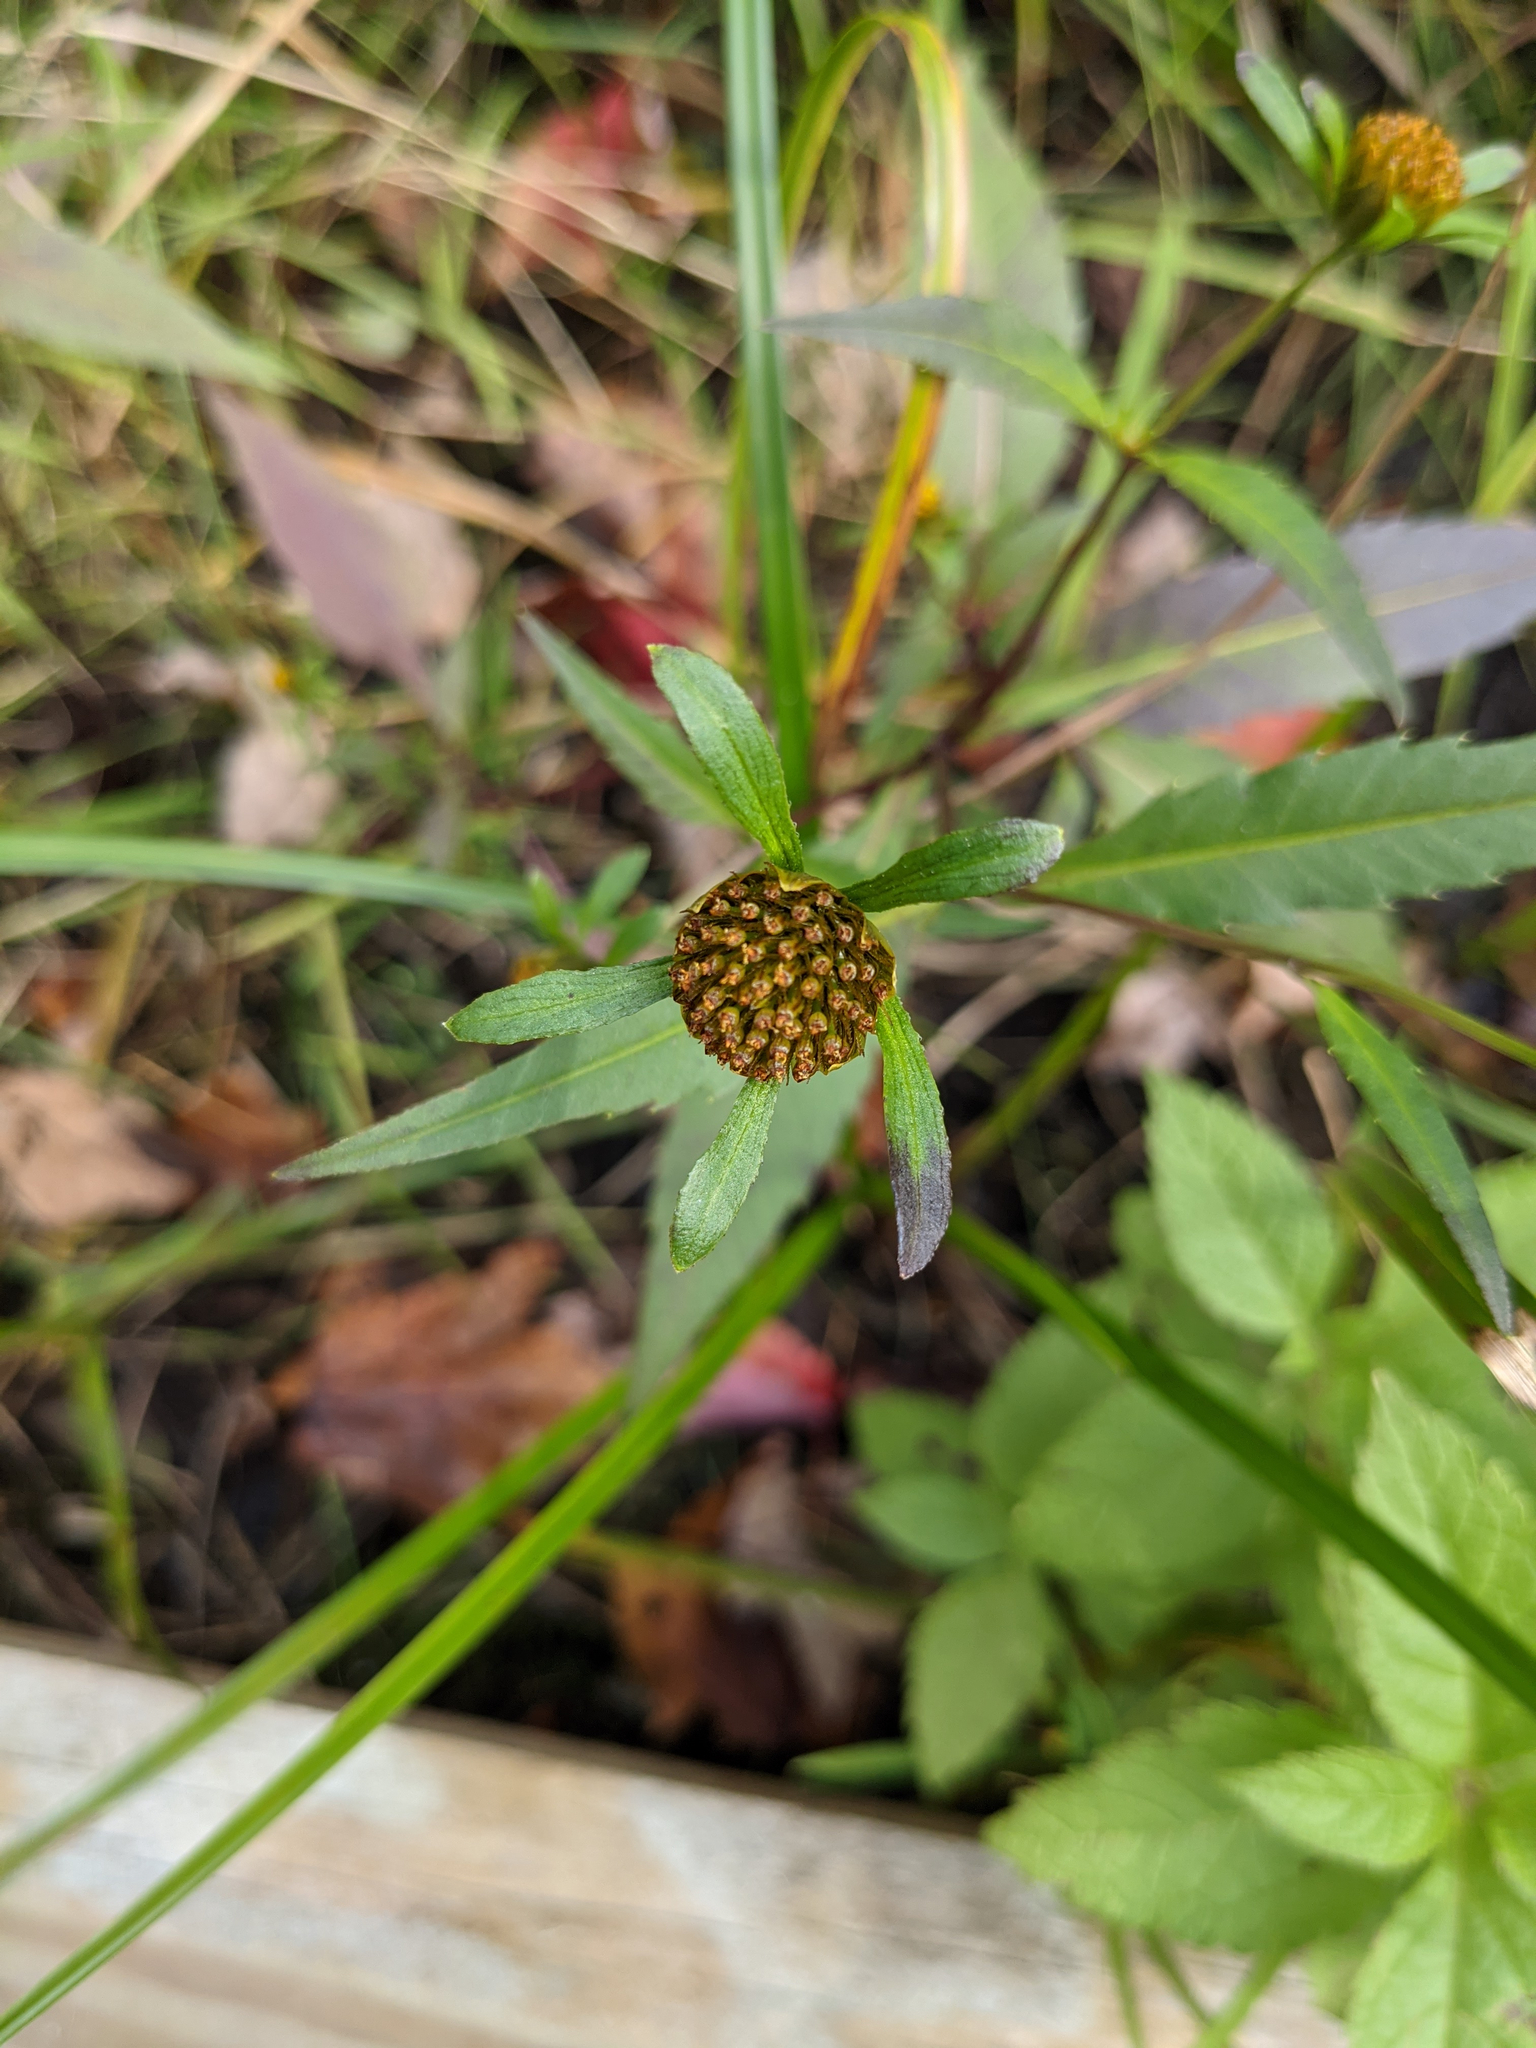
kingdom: Plantae
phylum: Tracheophyta
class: Magnoliopsida
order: Asterales
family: Asteraceae
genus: Bidens
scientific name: Bidens connata
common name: London bur-marigold
